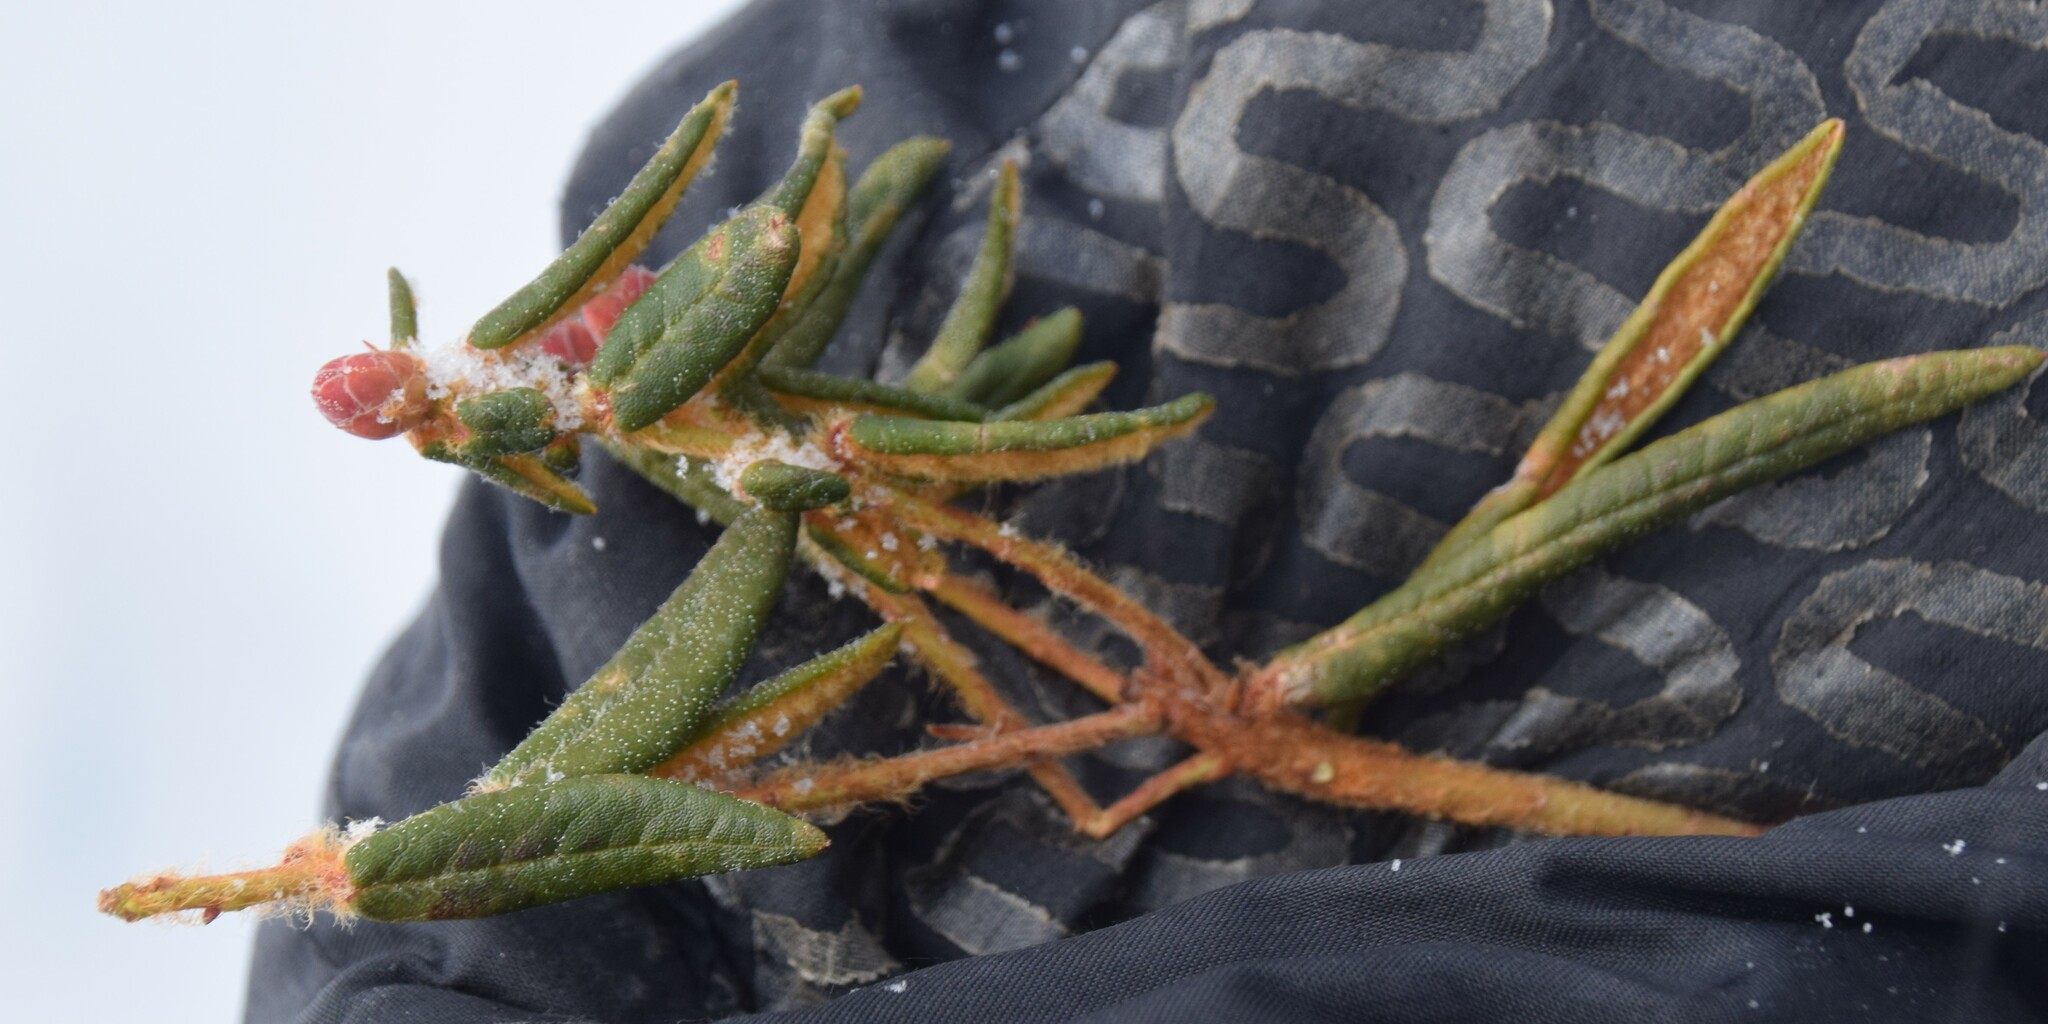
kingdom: Plantae
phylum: Tracheophyta
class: Magnoliopsida
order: Ericales
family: Ericaceae
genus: Rhododendron
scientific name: Rhododendron groenlandicum
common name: Bog labrador tea
